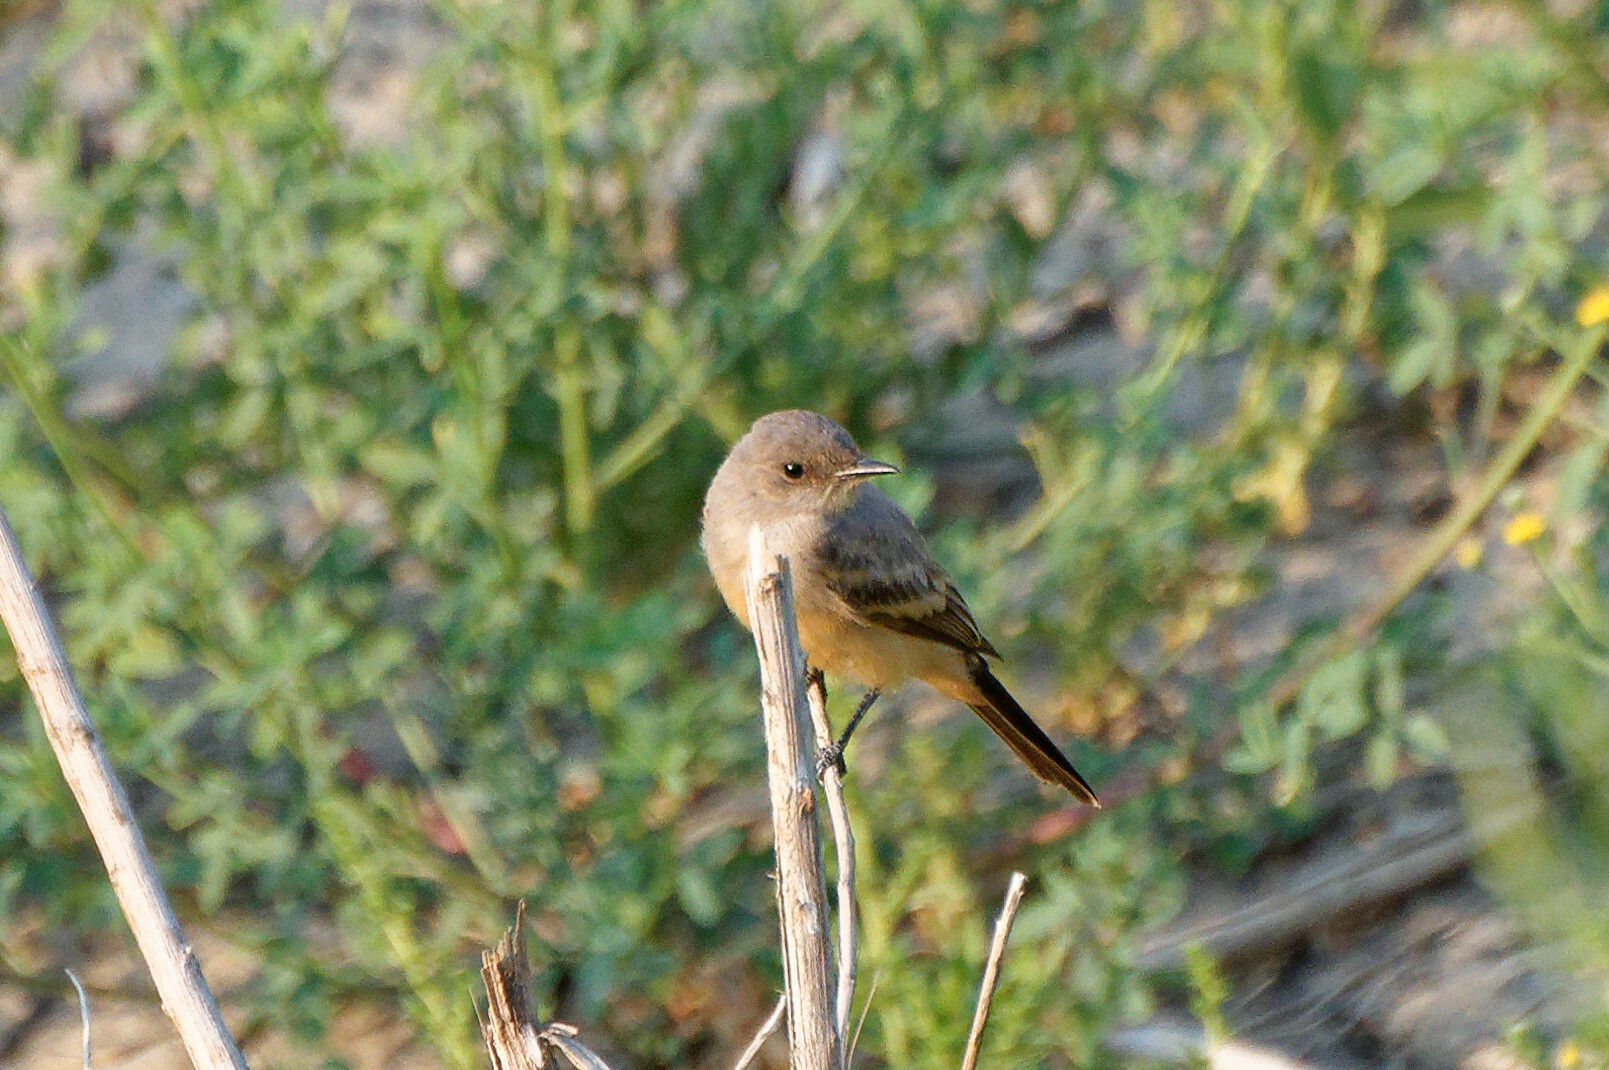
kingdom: Animalia
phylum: Chordata
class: Aves
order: Passeriformes
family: Tyrannidae
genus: Sayornis
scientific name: Sayornis saya
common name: Say's phoebe
